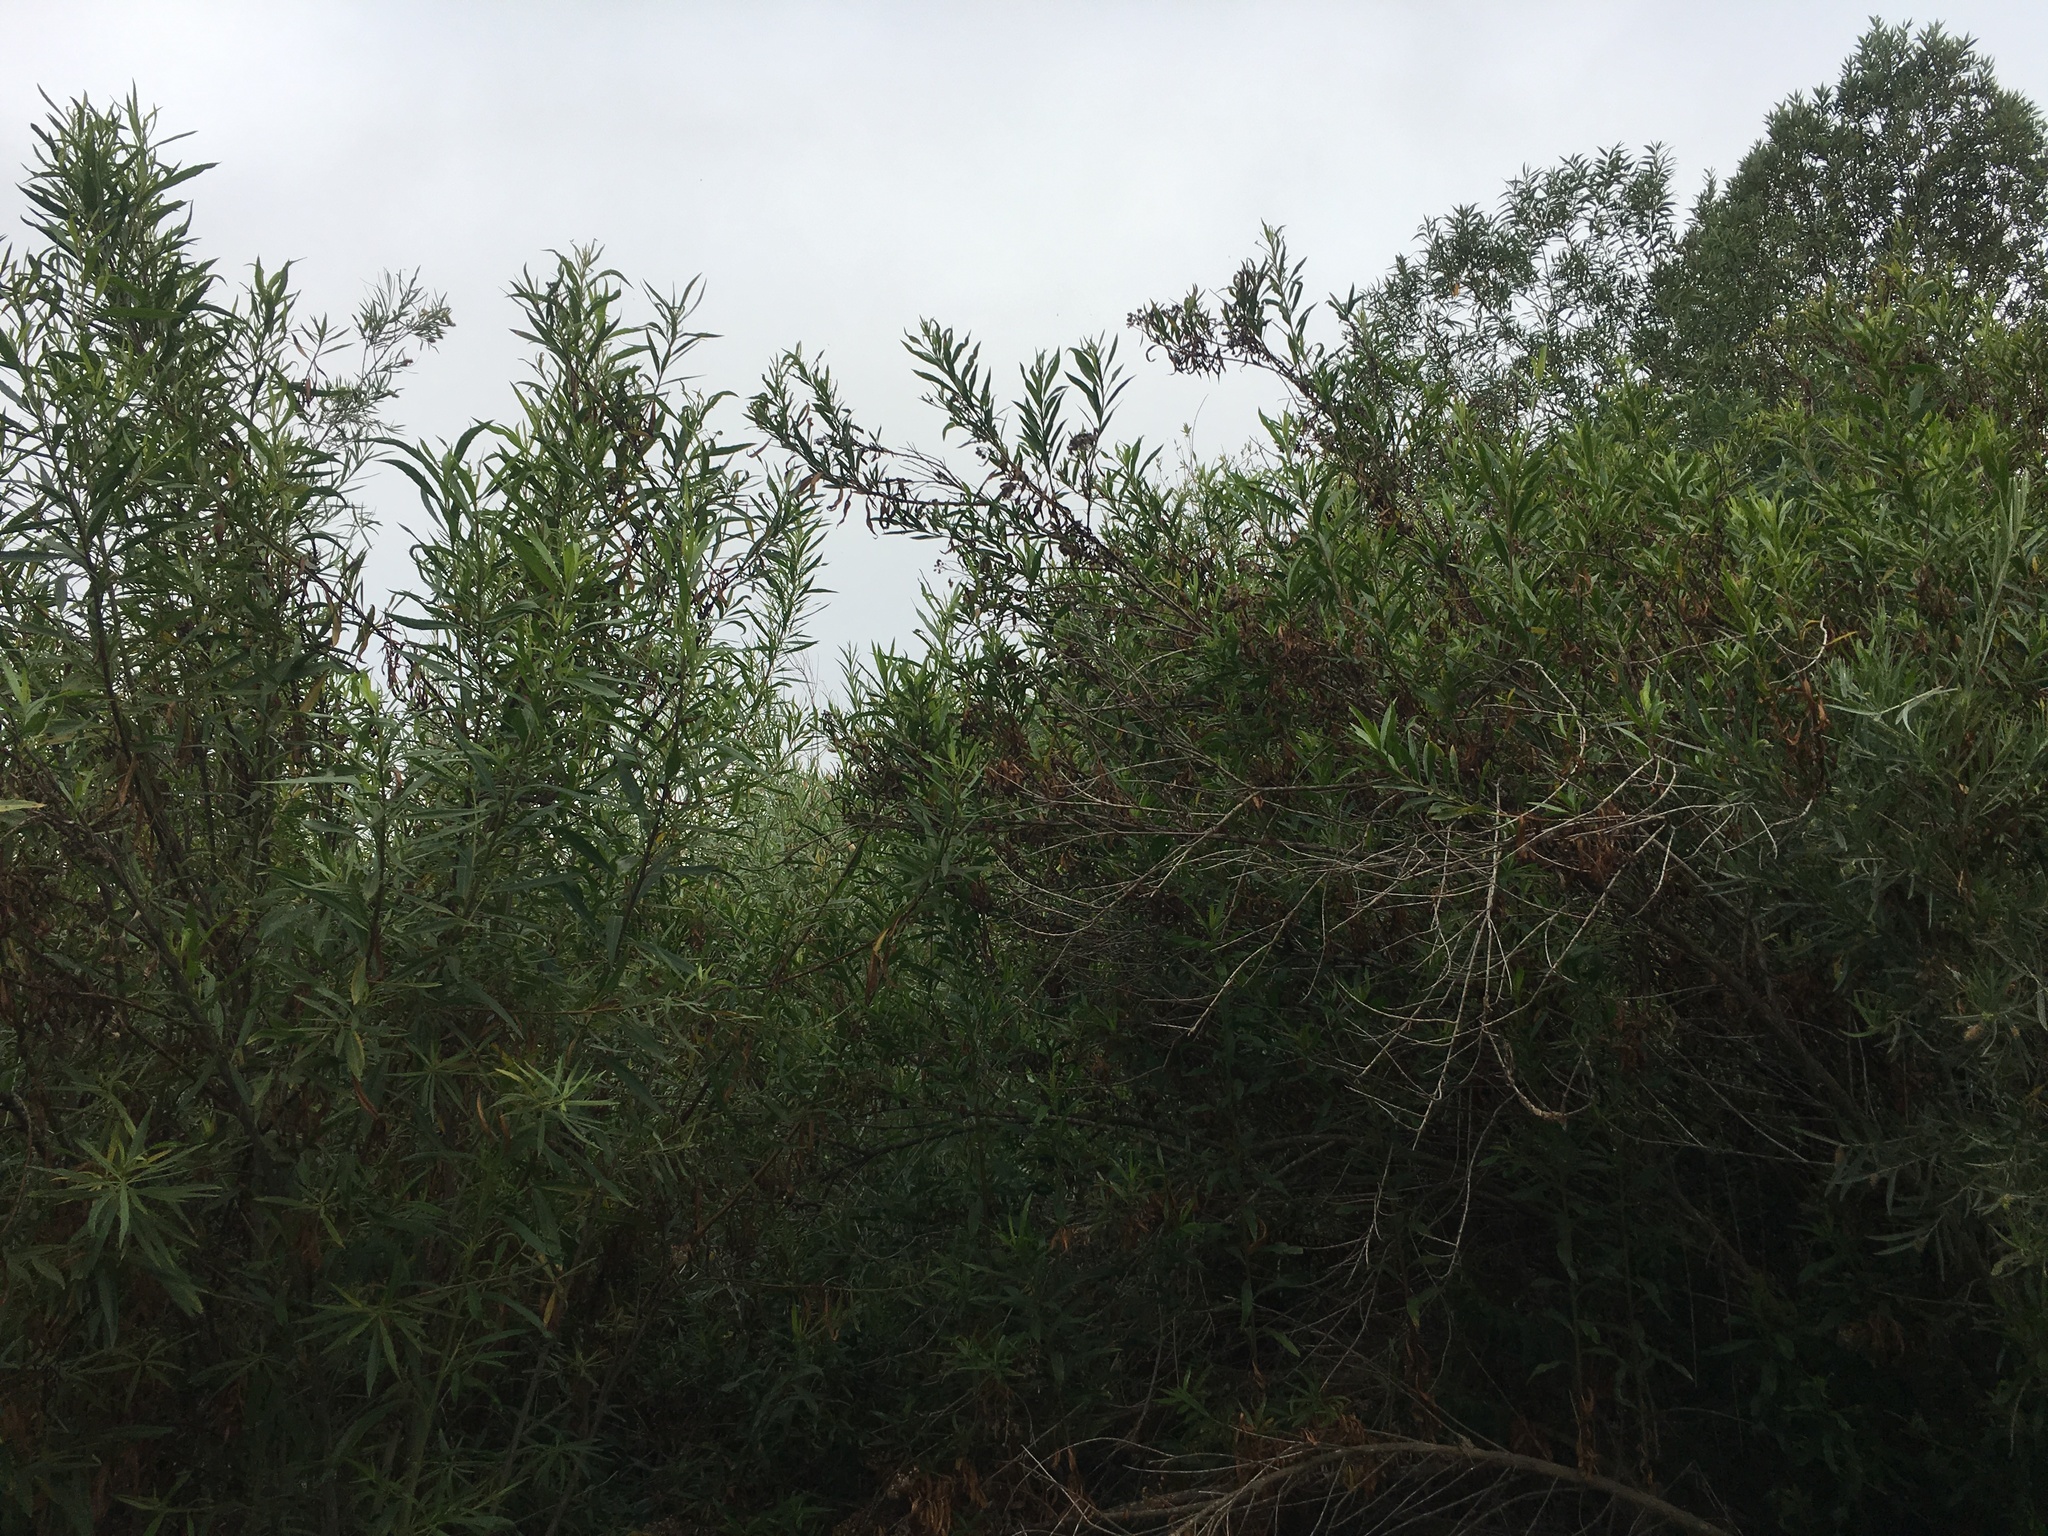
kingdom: Plantae
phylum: Tracheophyta
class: Magnoliopsida
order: Asterales
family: Asteraceae
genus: Baccharis
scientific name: Baccharis salicifolia
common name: Sticky baccharis
